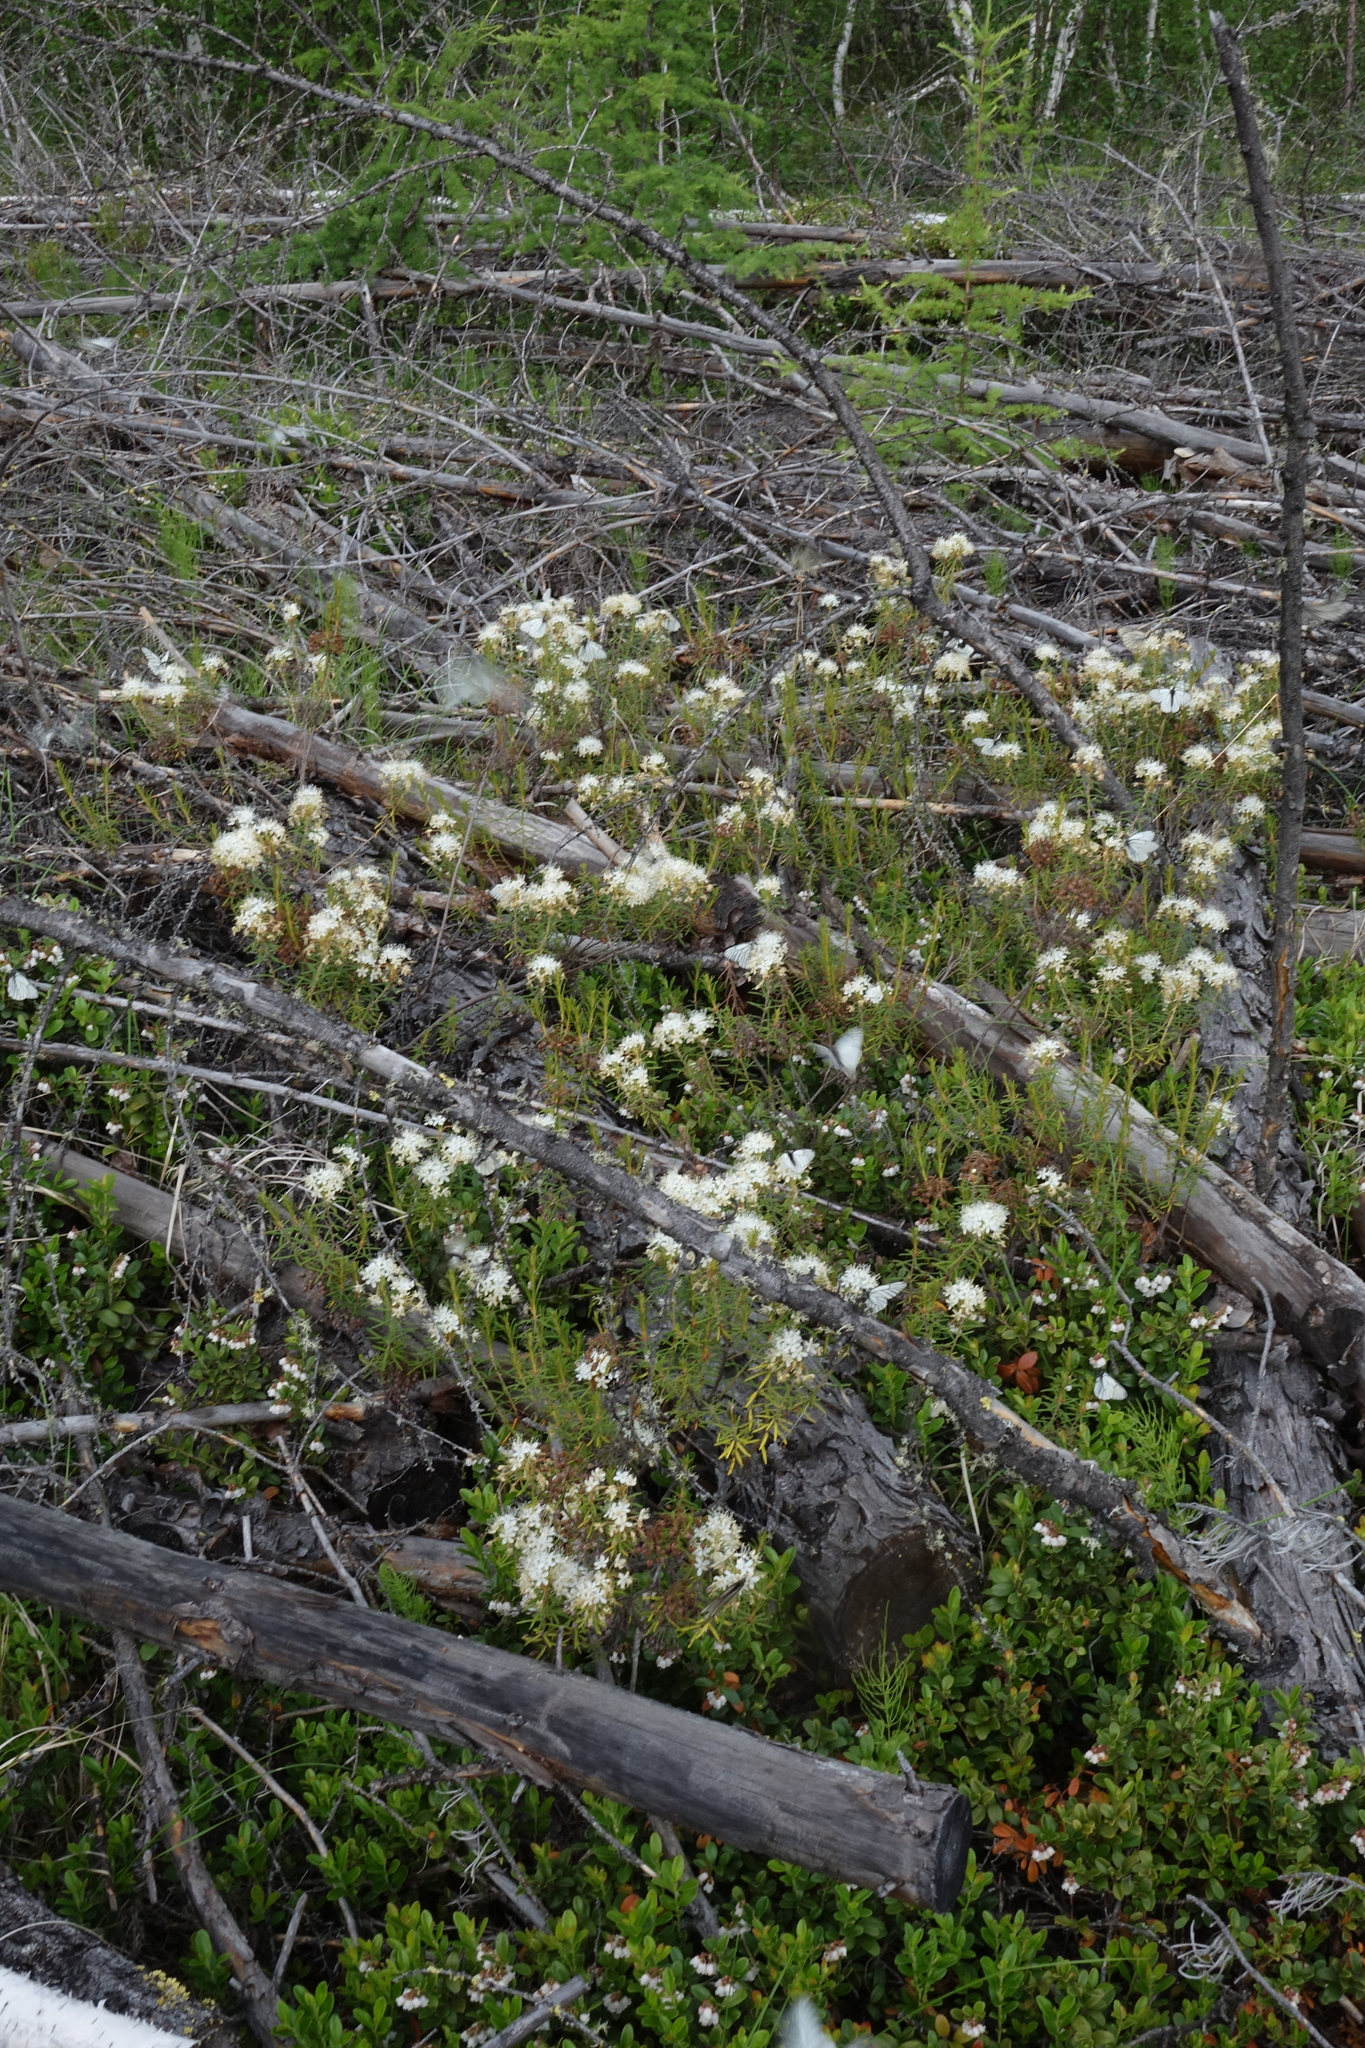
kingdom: Plantae
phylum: Tracheophyta
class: Magnoliopsida
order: Ericales
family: Ericaceae
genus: Rhododendron
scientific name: Rhododendron tomentosum
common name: Marsh labrador tea
